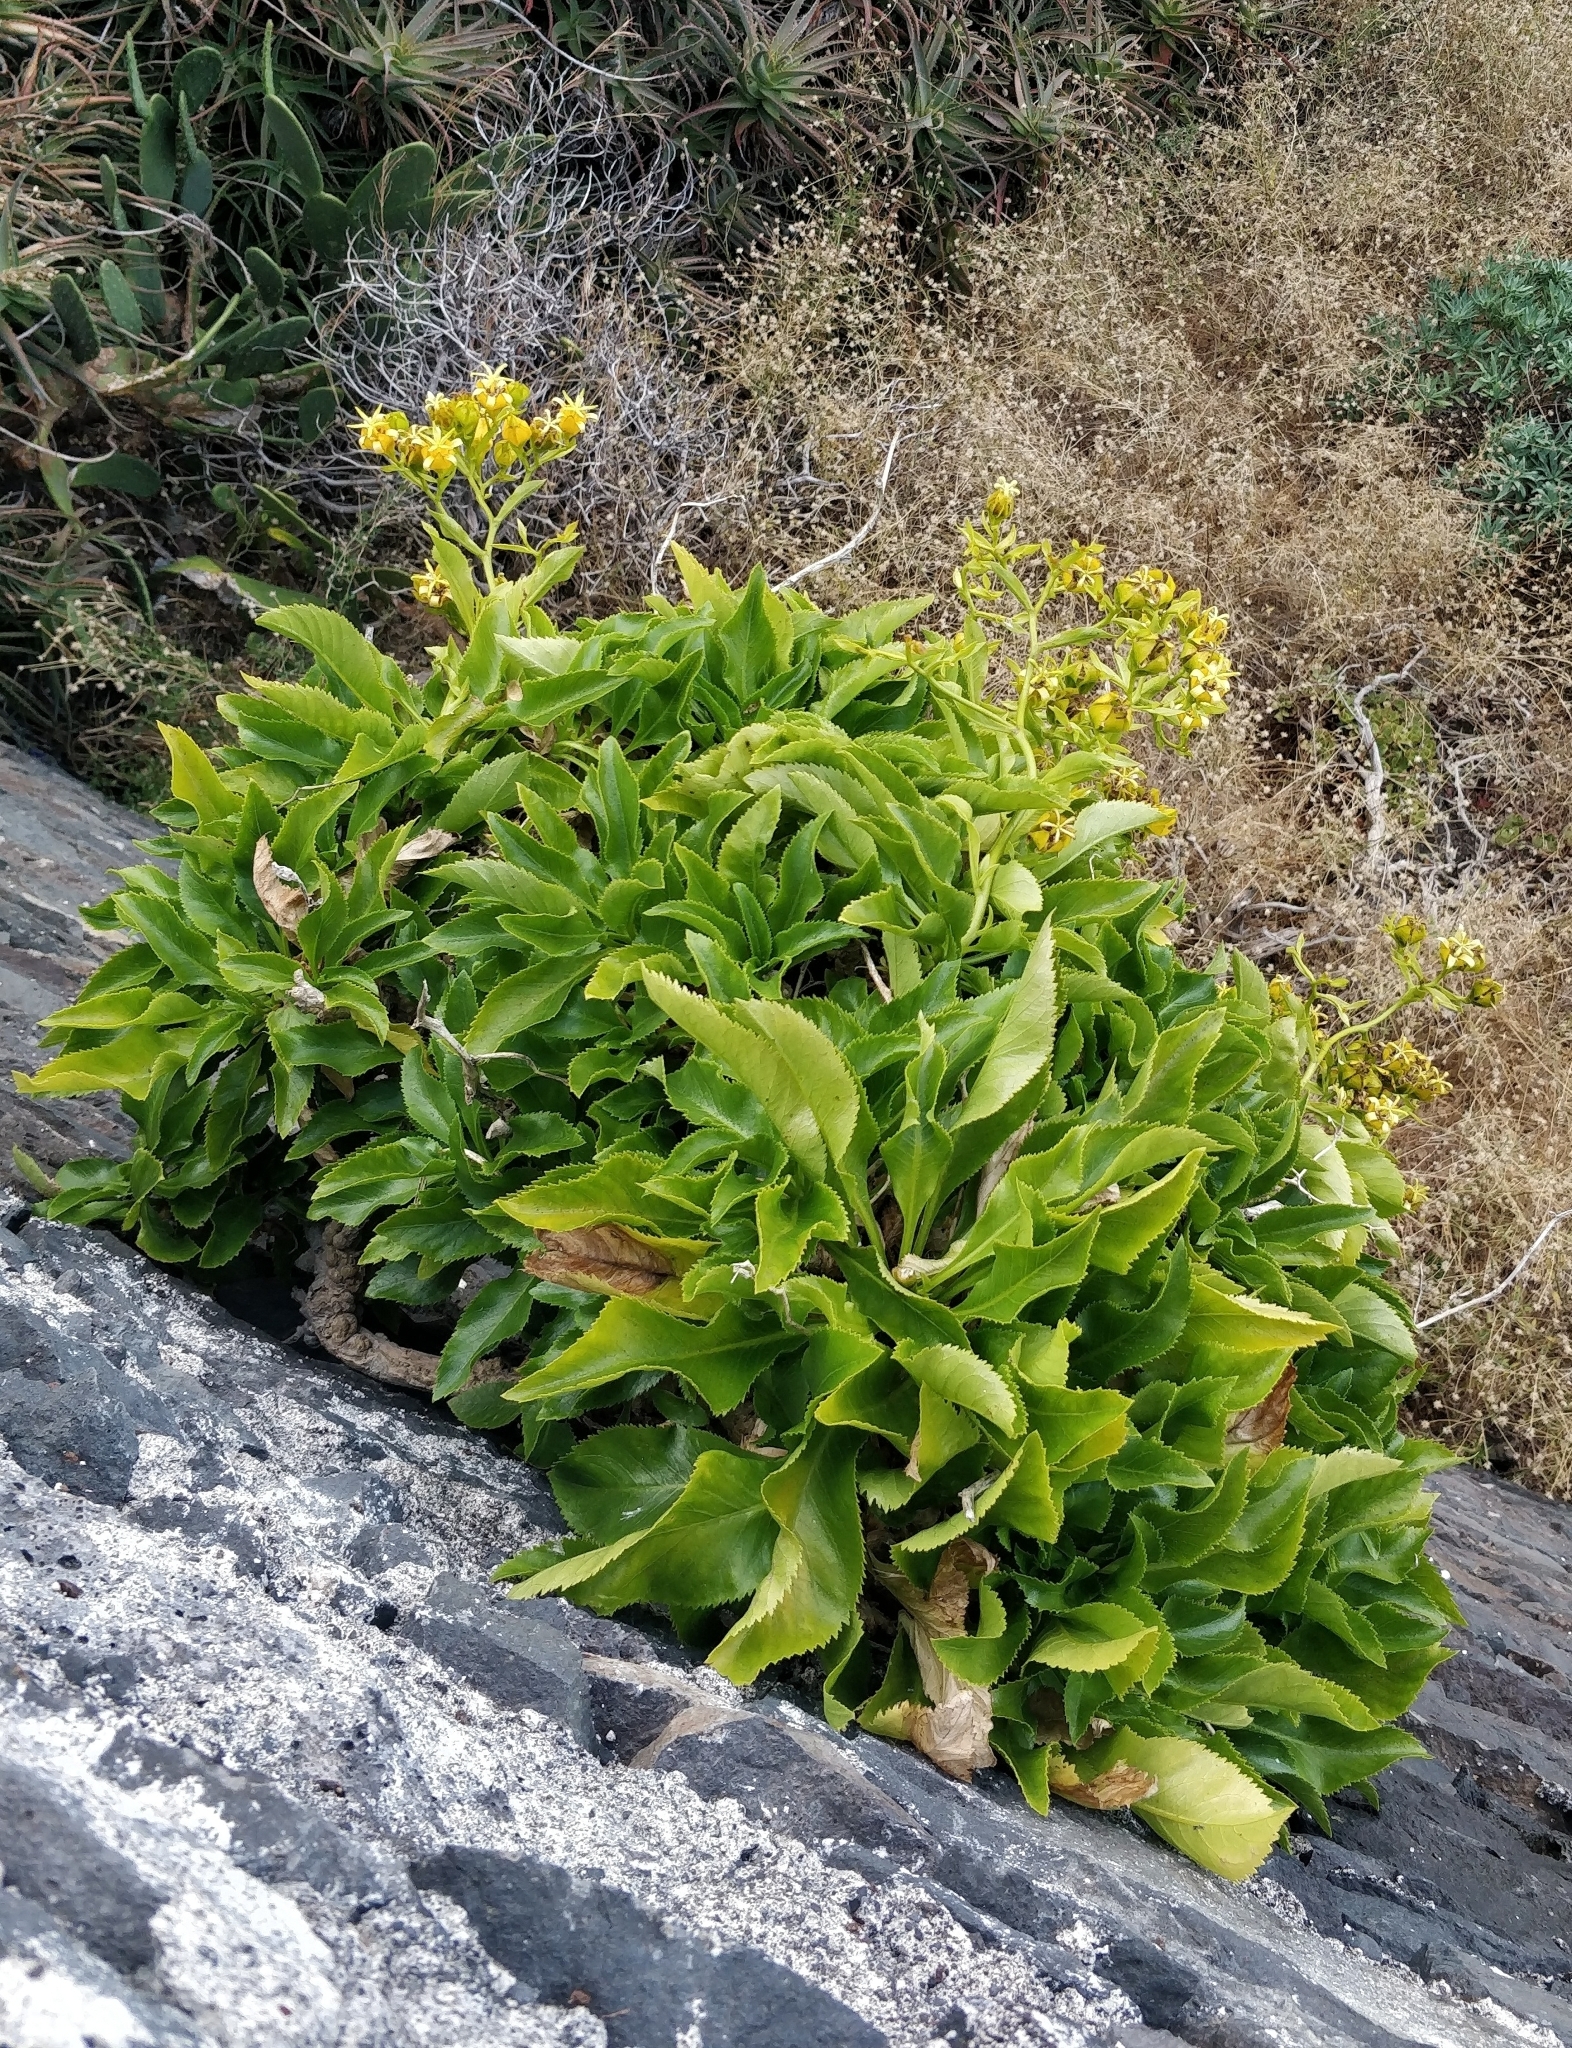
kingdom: Plantae
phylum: Tracheophyta
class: Magnoliopsida
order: Asterales
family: Campanulaceae
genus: Musschia
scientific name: Musschia aurea
